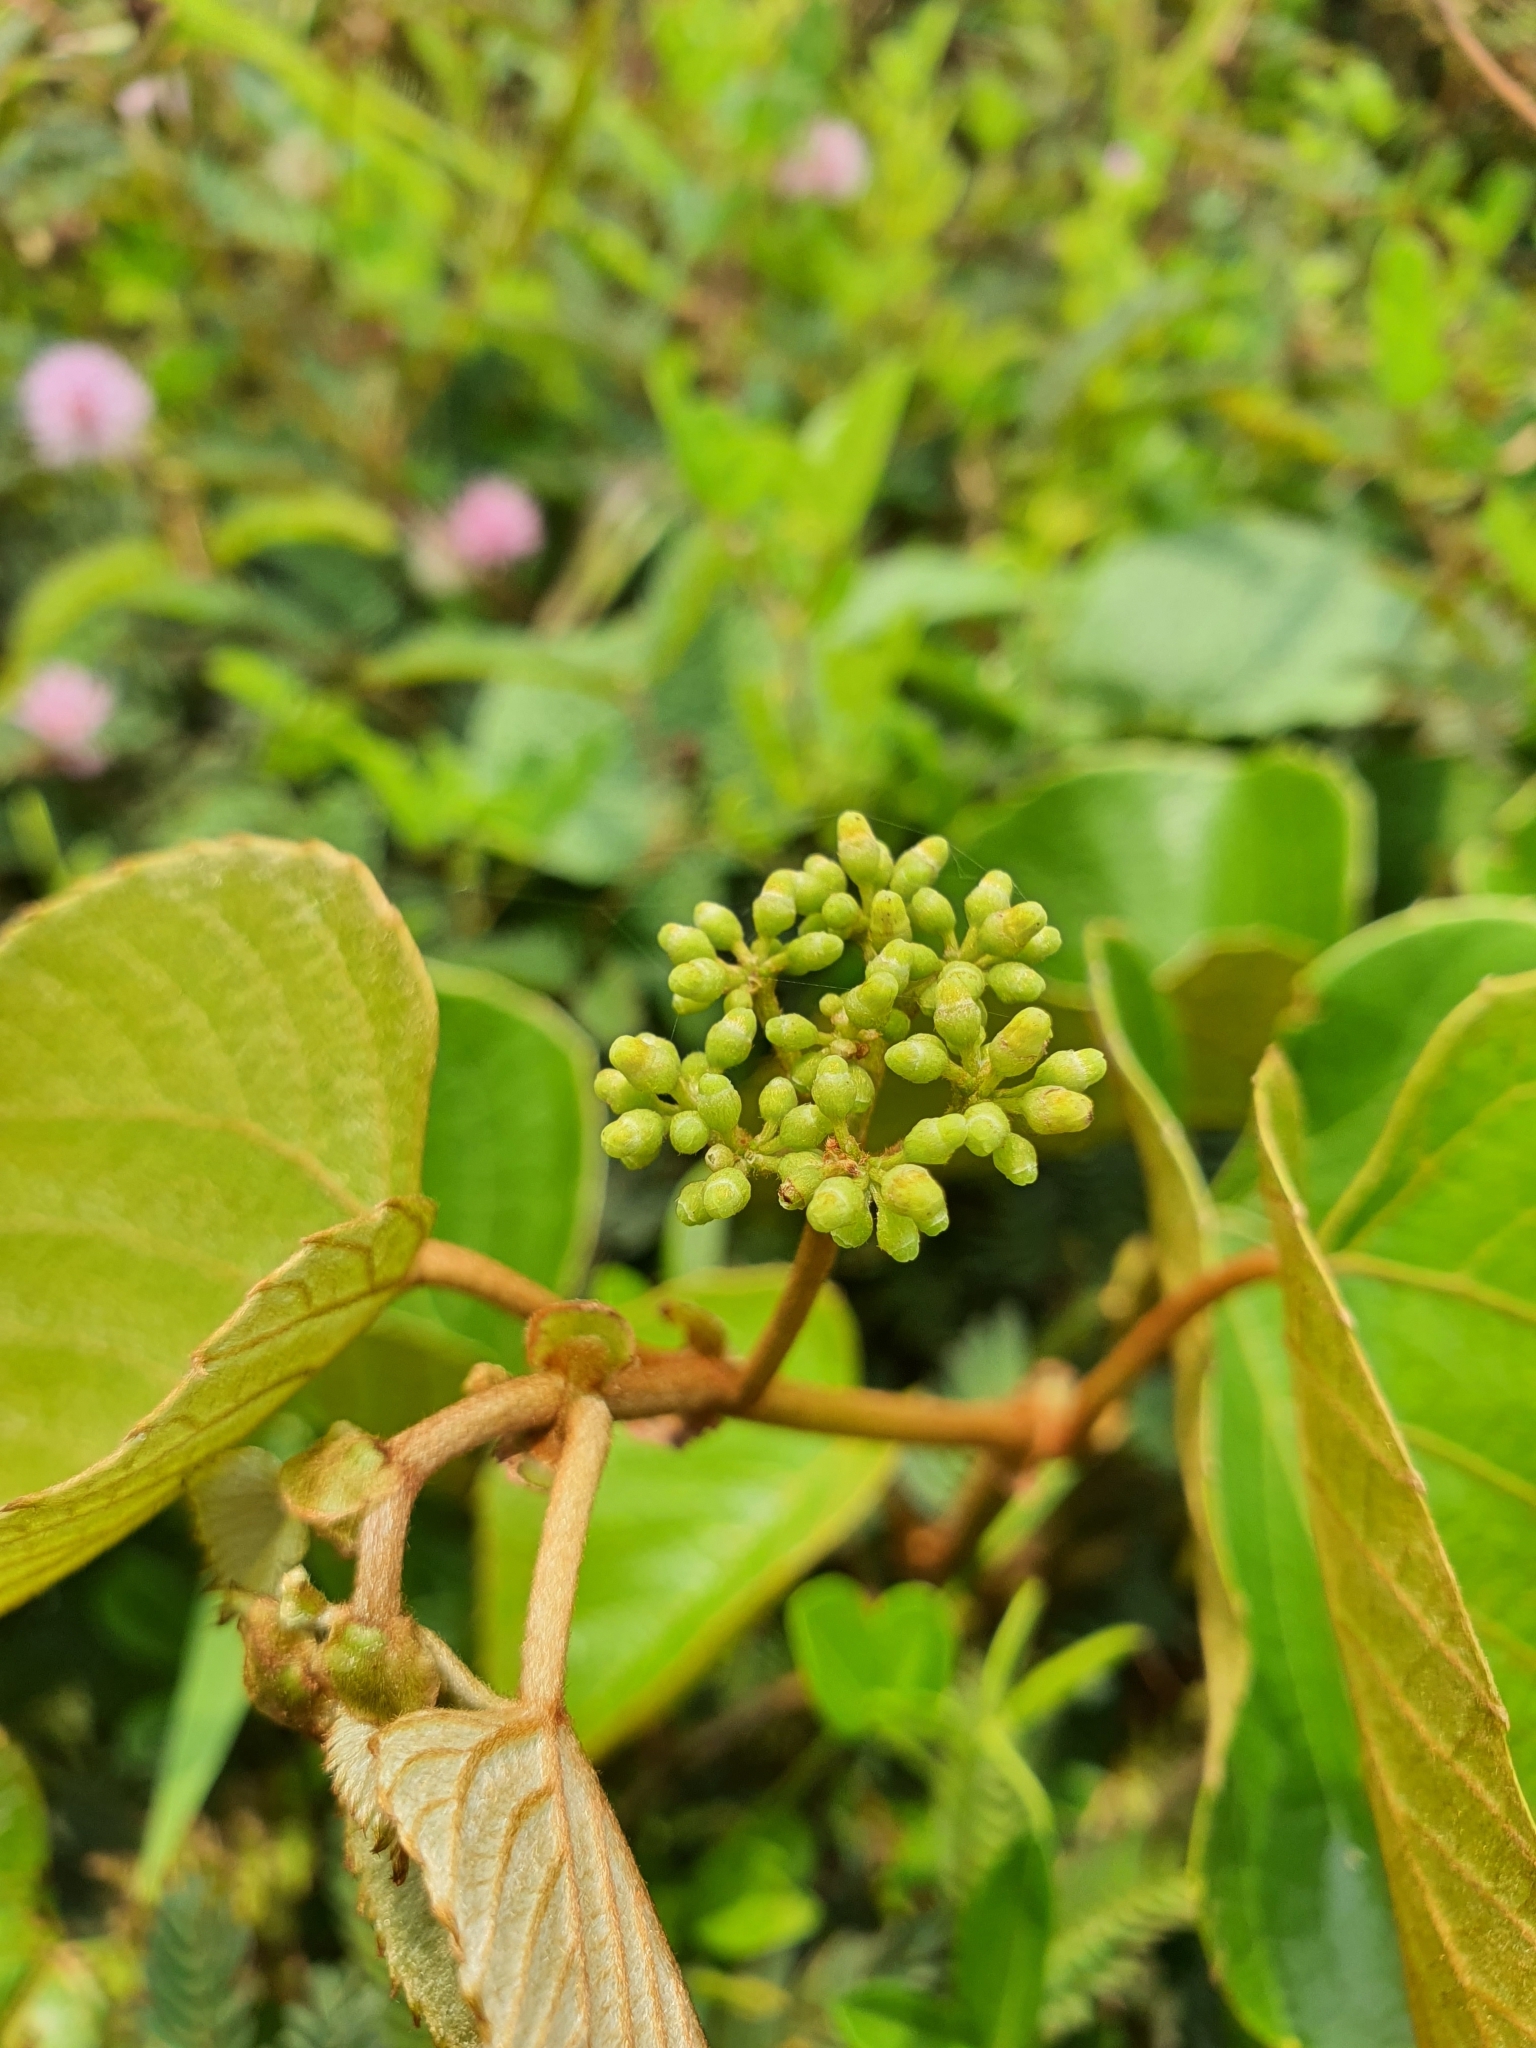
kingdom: Plantae
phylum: Tracheophyta
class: Magnoliopsida
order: Vitales
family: Vitaceae
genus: Cissus
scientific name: Cissus repanda
